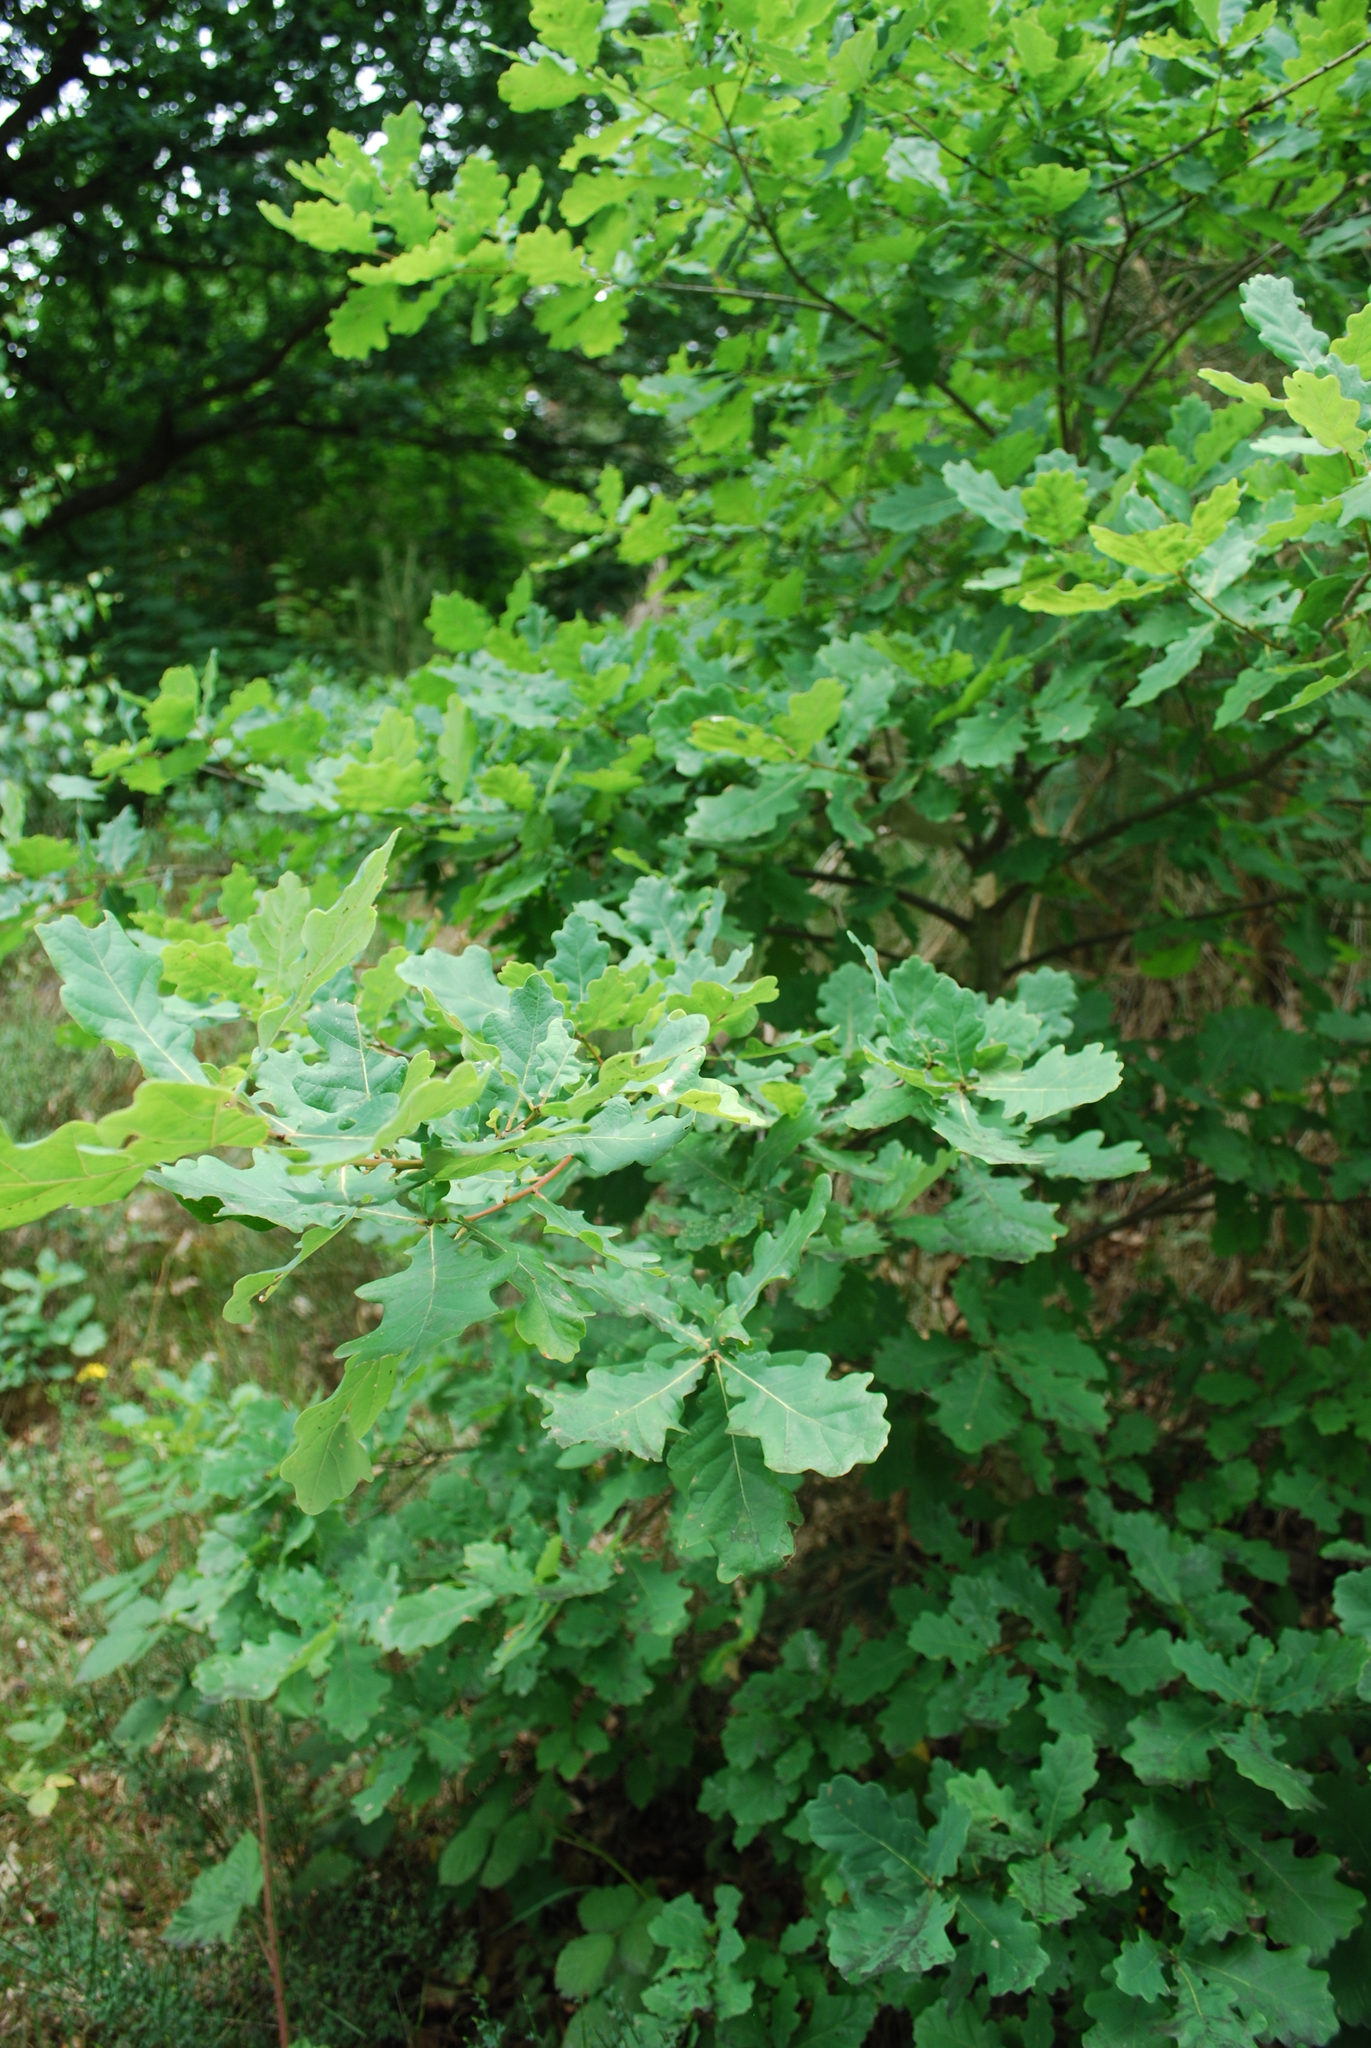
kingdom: Plantae
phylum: Tracheophyta
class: Magnoliopsida
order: Fagales
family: Fagaceae
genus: Quercus
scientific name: Quercus robur
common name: Pedunculate oak
